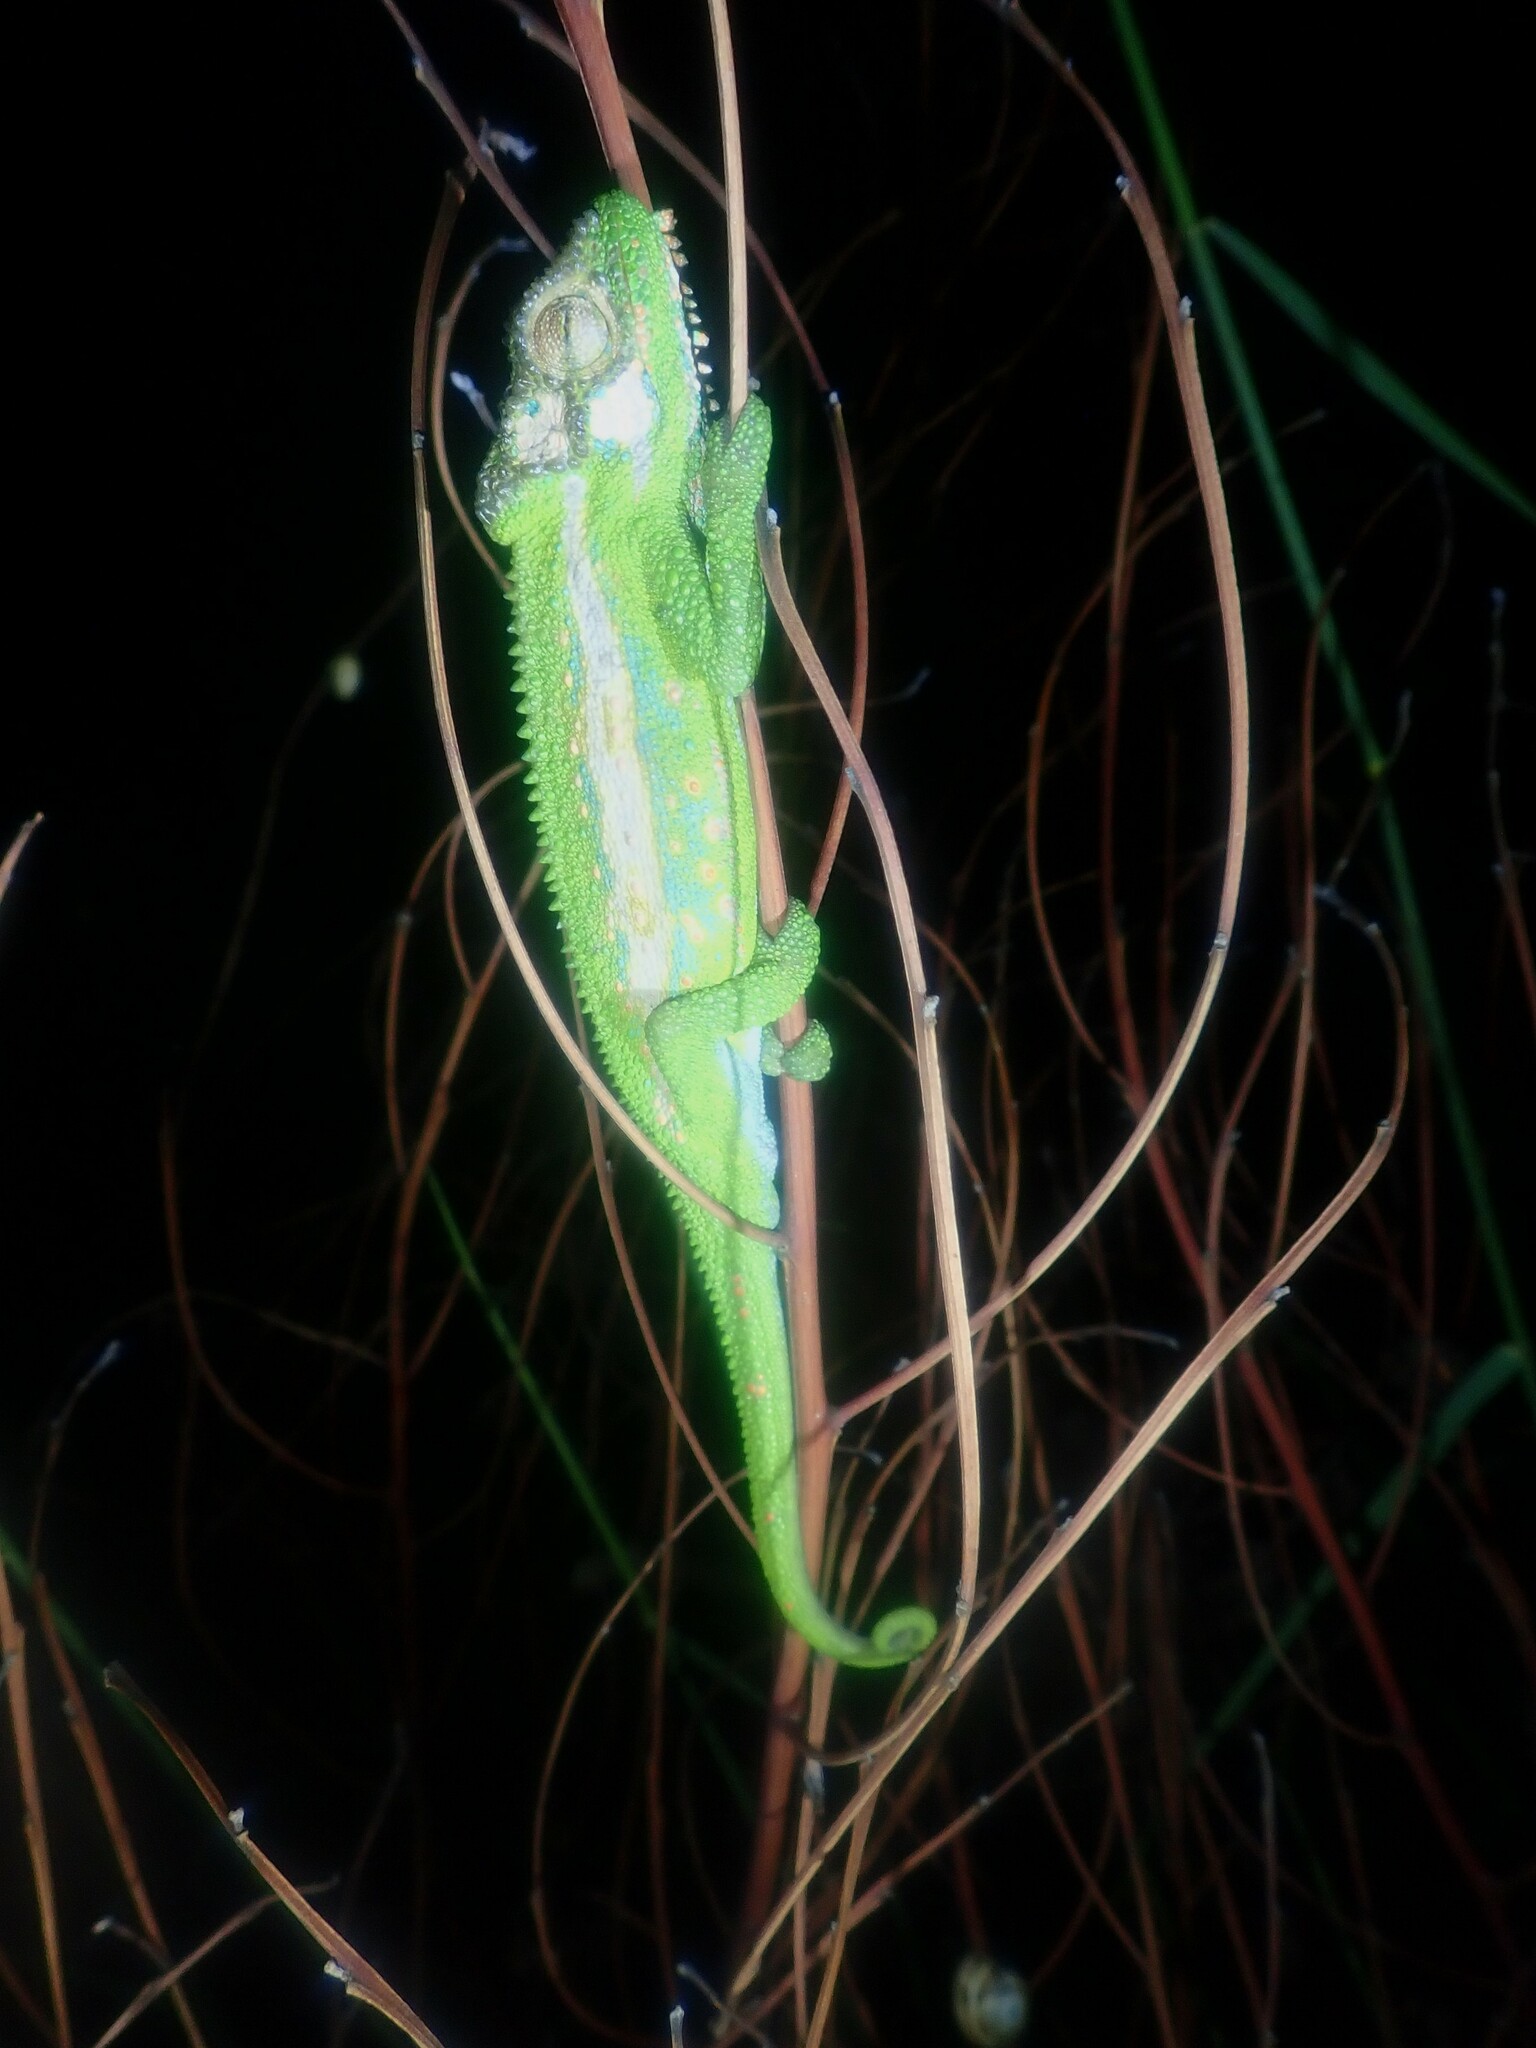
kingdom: Animalia
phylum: Chordata
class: Squamata
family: Chamaeleonidae
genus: Bradypodion
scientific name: Bradypodion pumilum
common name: Cape dwarf chameleon
